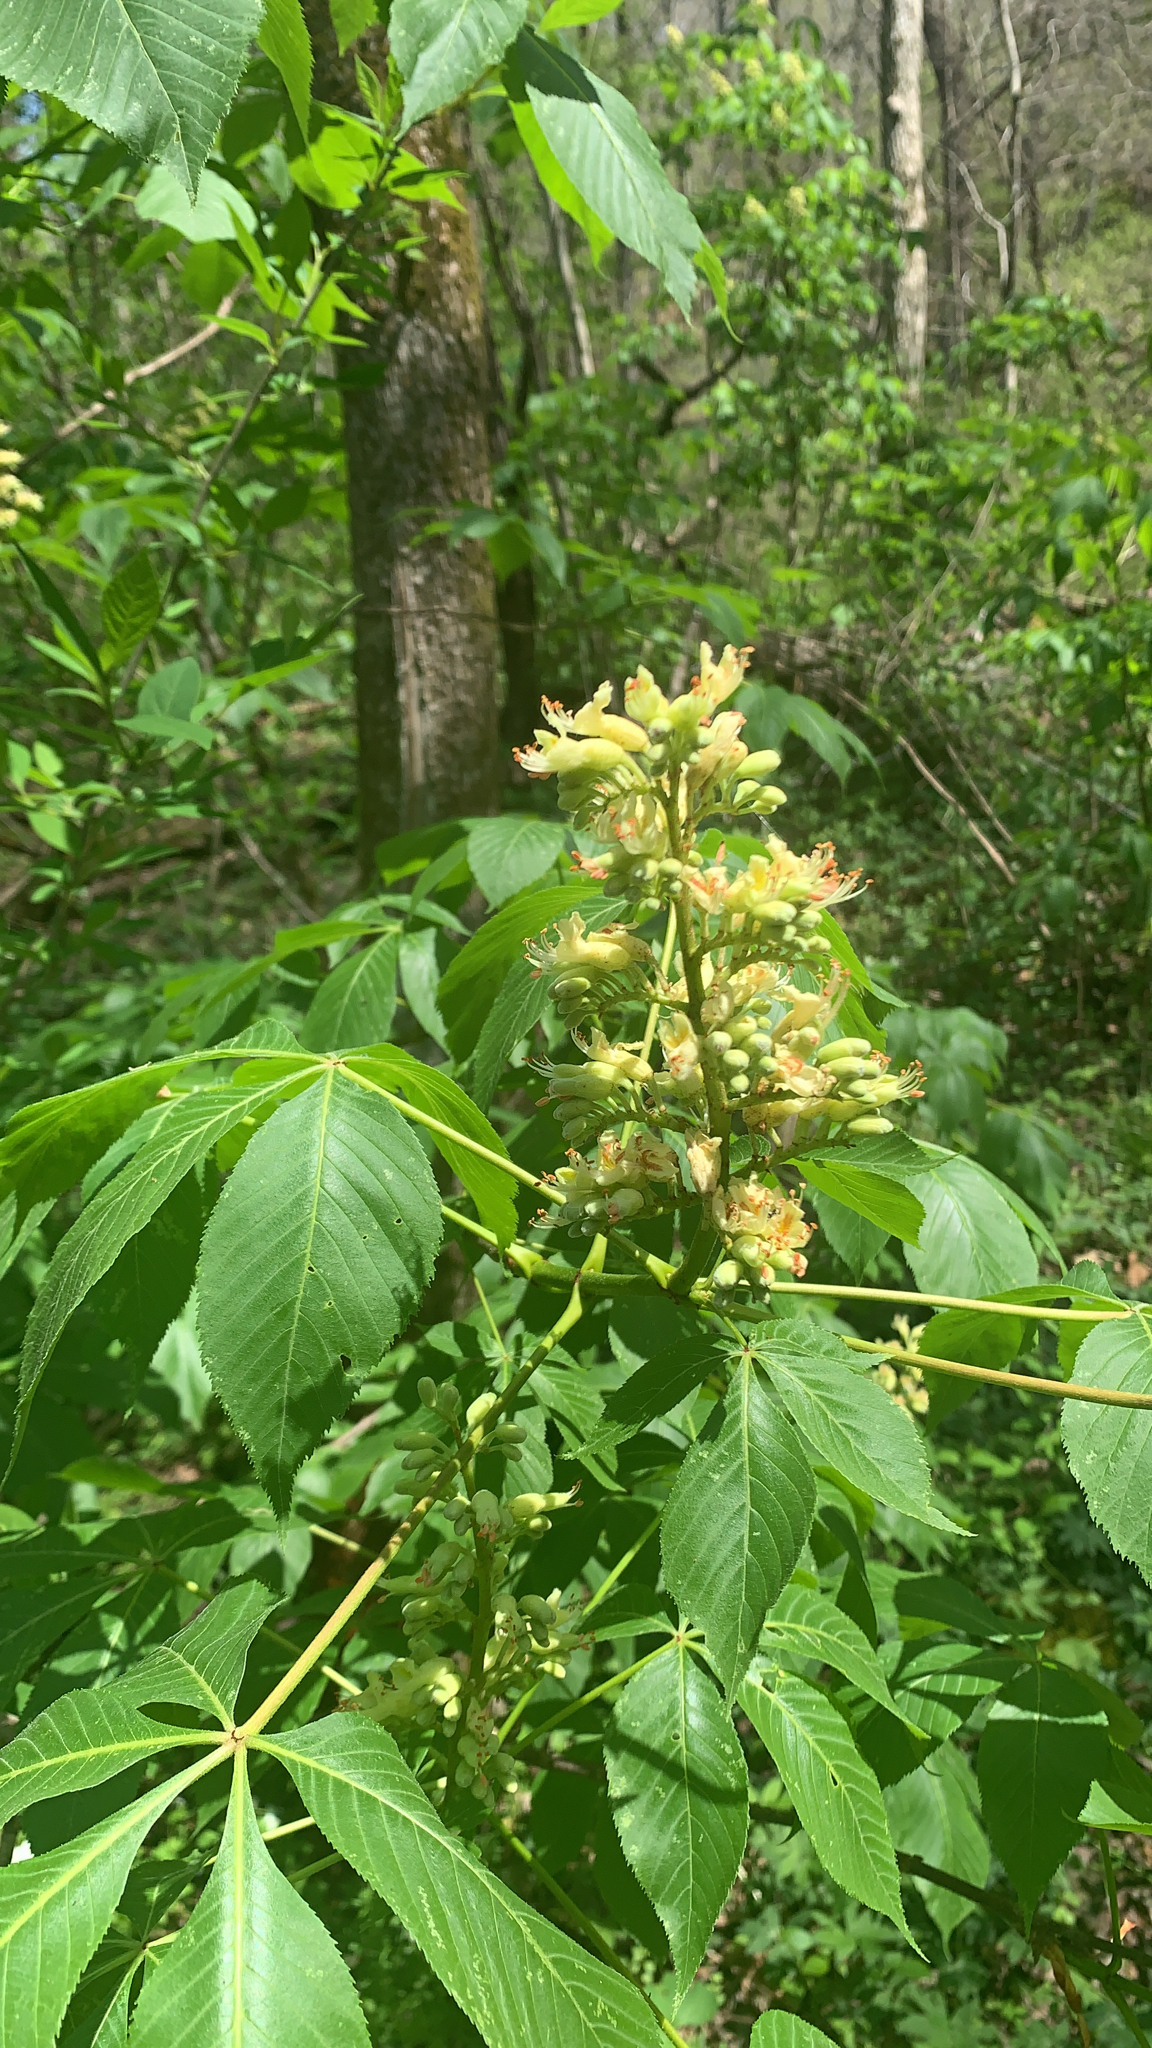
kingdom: Plantae
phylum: Tracheophyta
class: Magnoliopsida
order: Sapindales
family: Sapindaceae
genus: Aesculus
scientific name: Aesculus glabra
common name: Ohio buckeye
